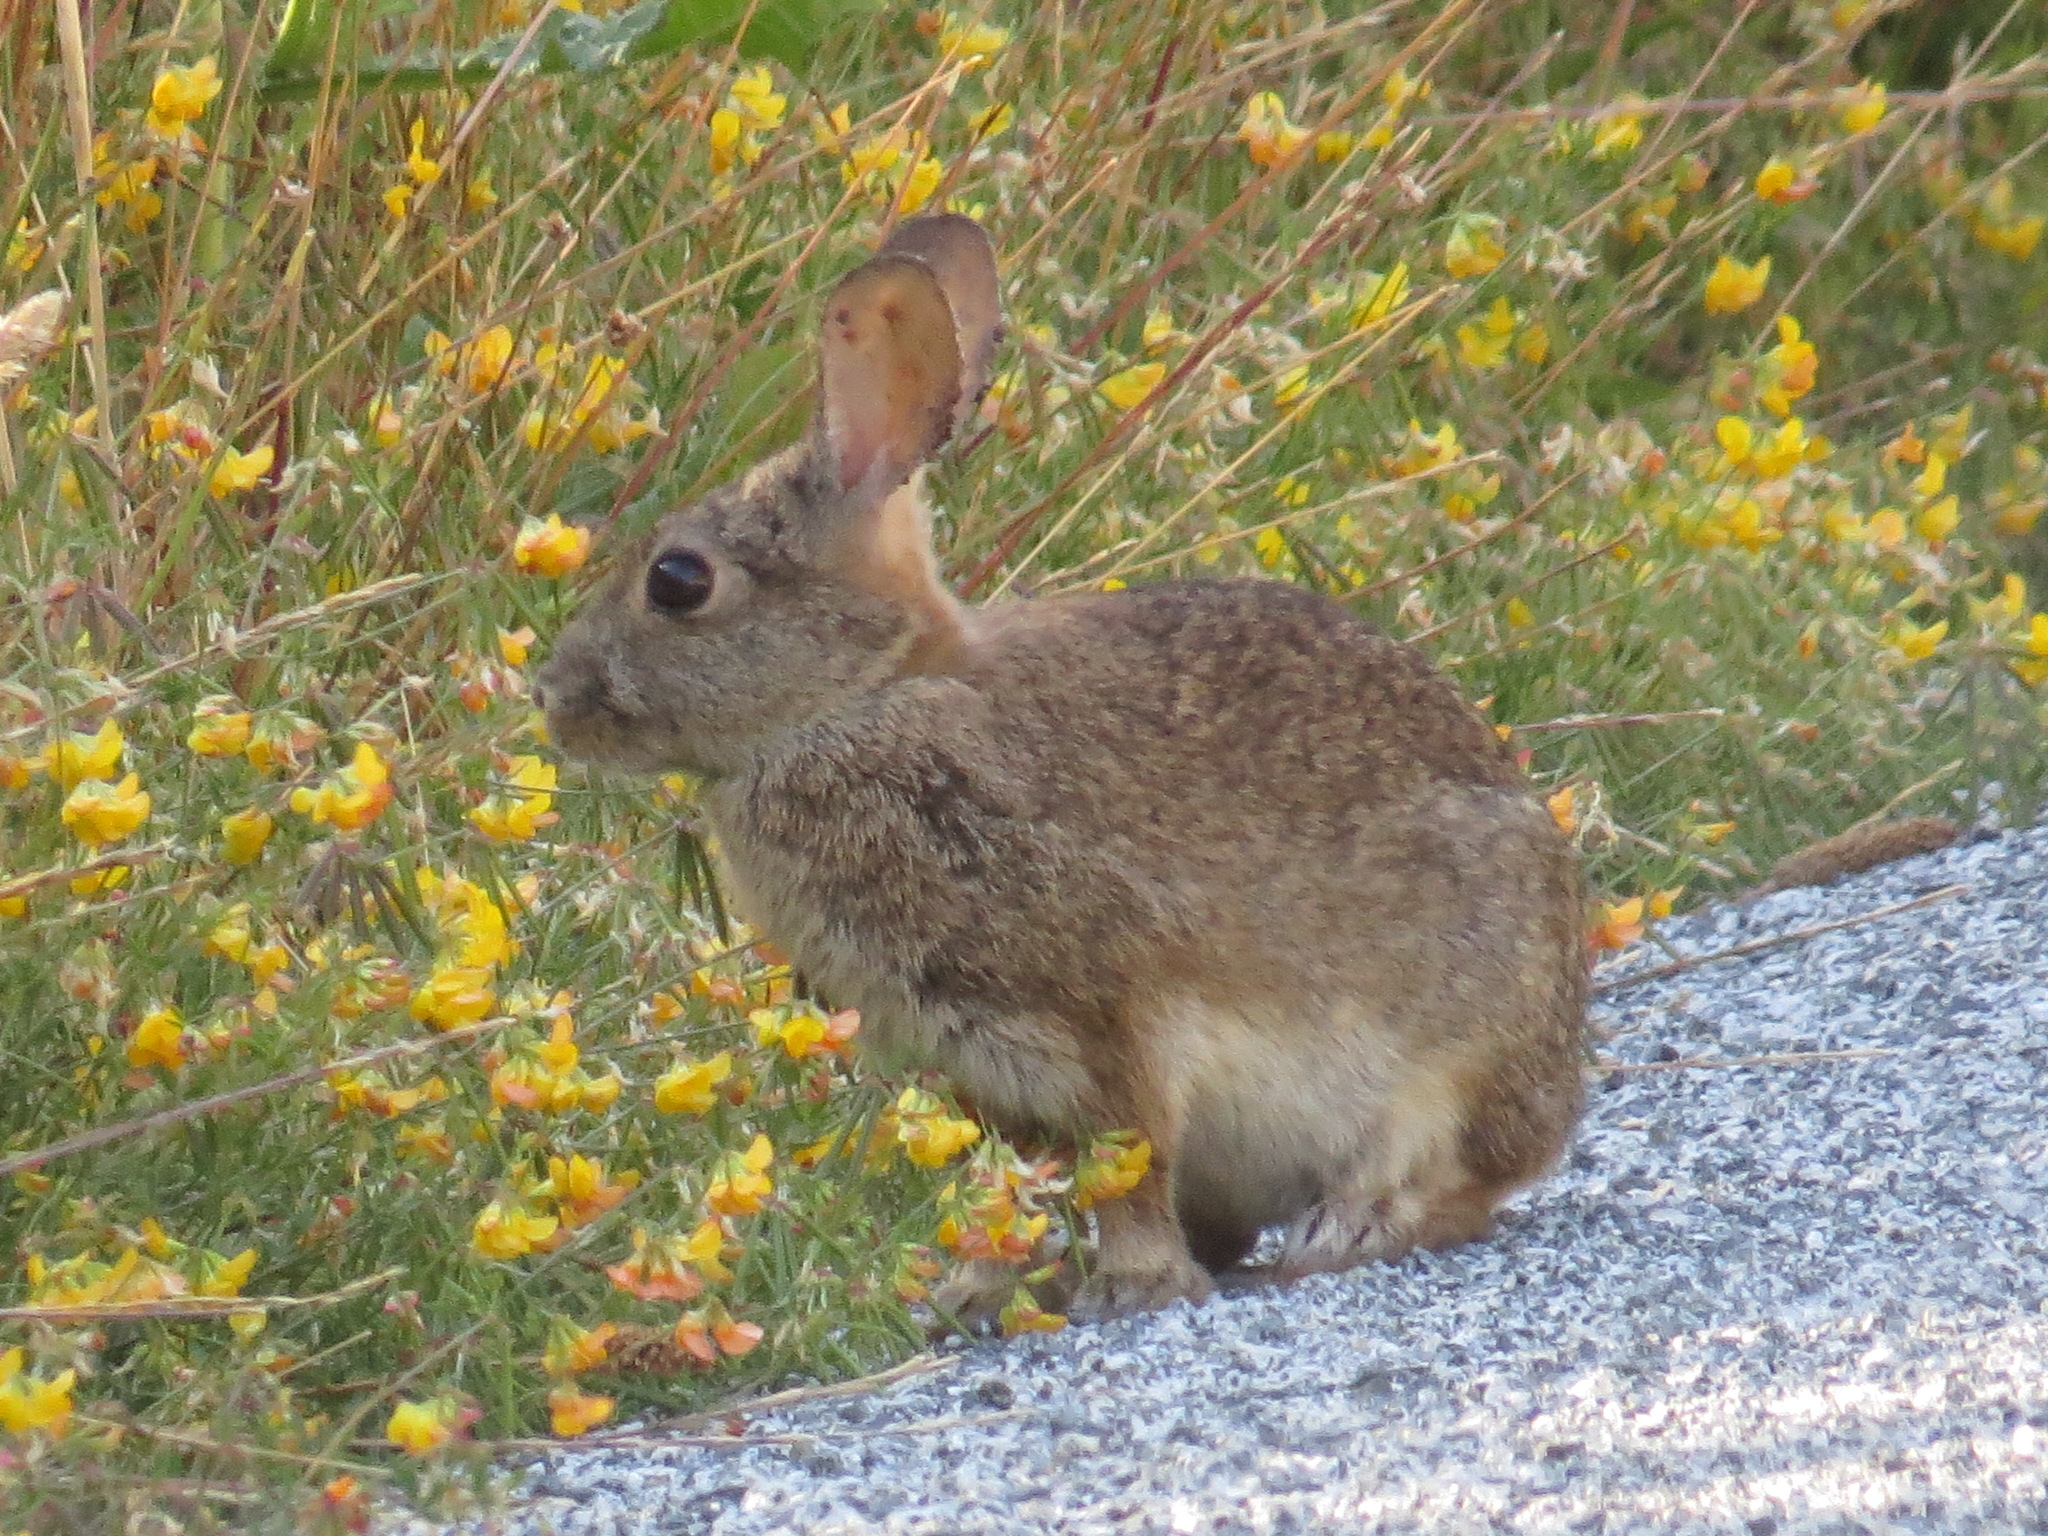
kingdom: Animalia
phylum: Chordata
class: Mammalia
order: Lagomorpha
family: Leporidae
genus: Sylvilagus
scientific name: Sylvilagus bachmani
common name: Brush rabbit
